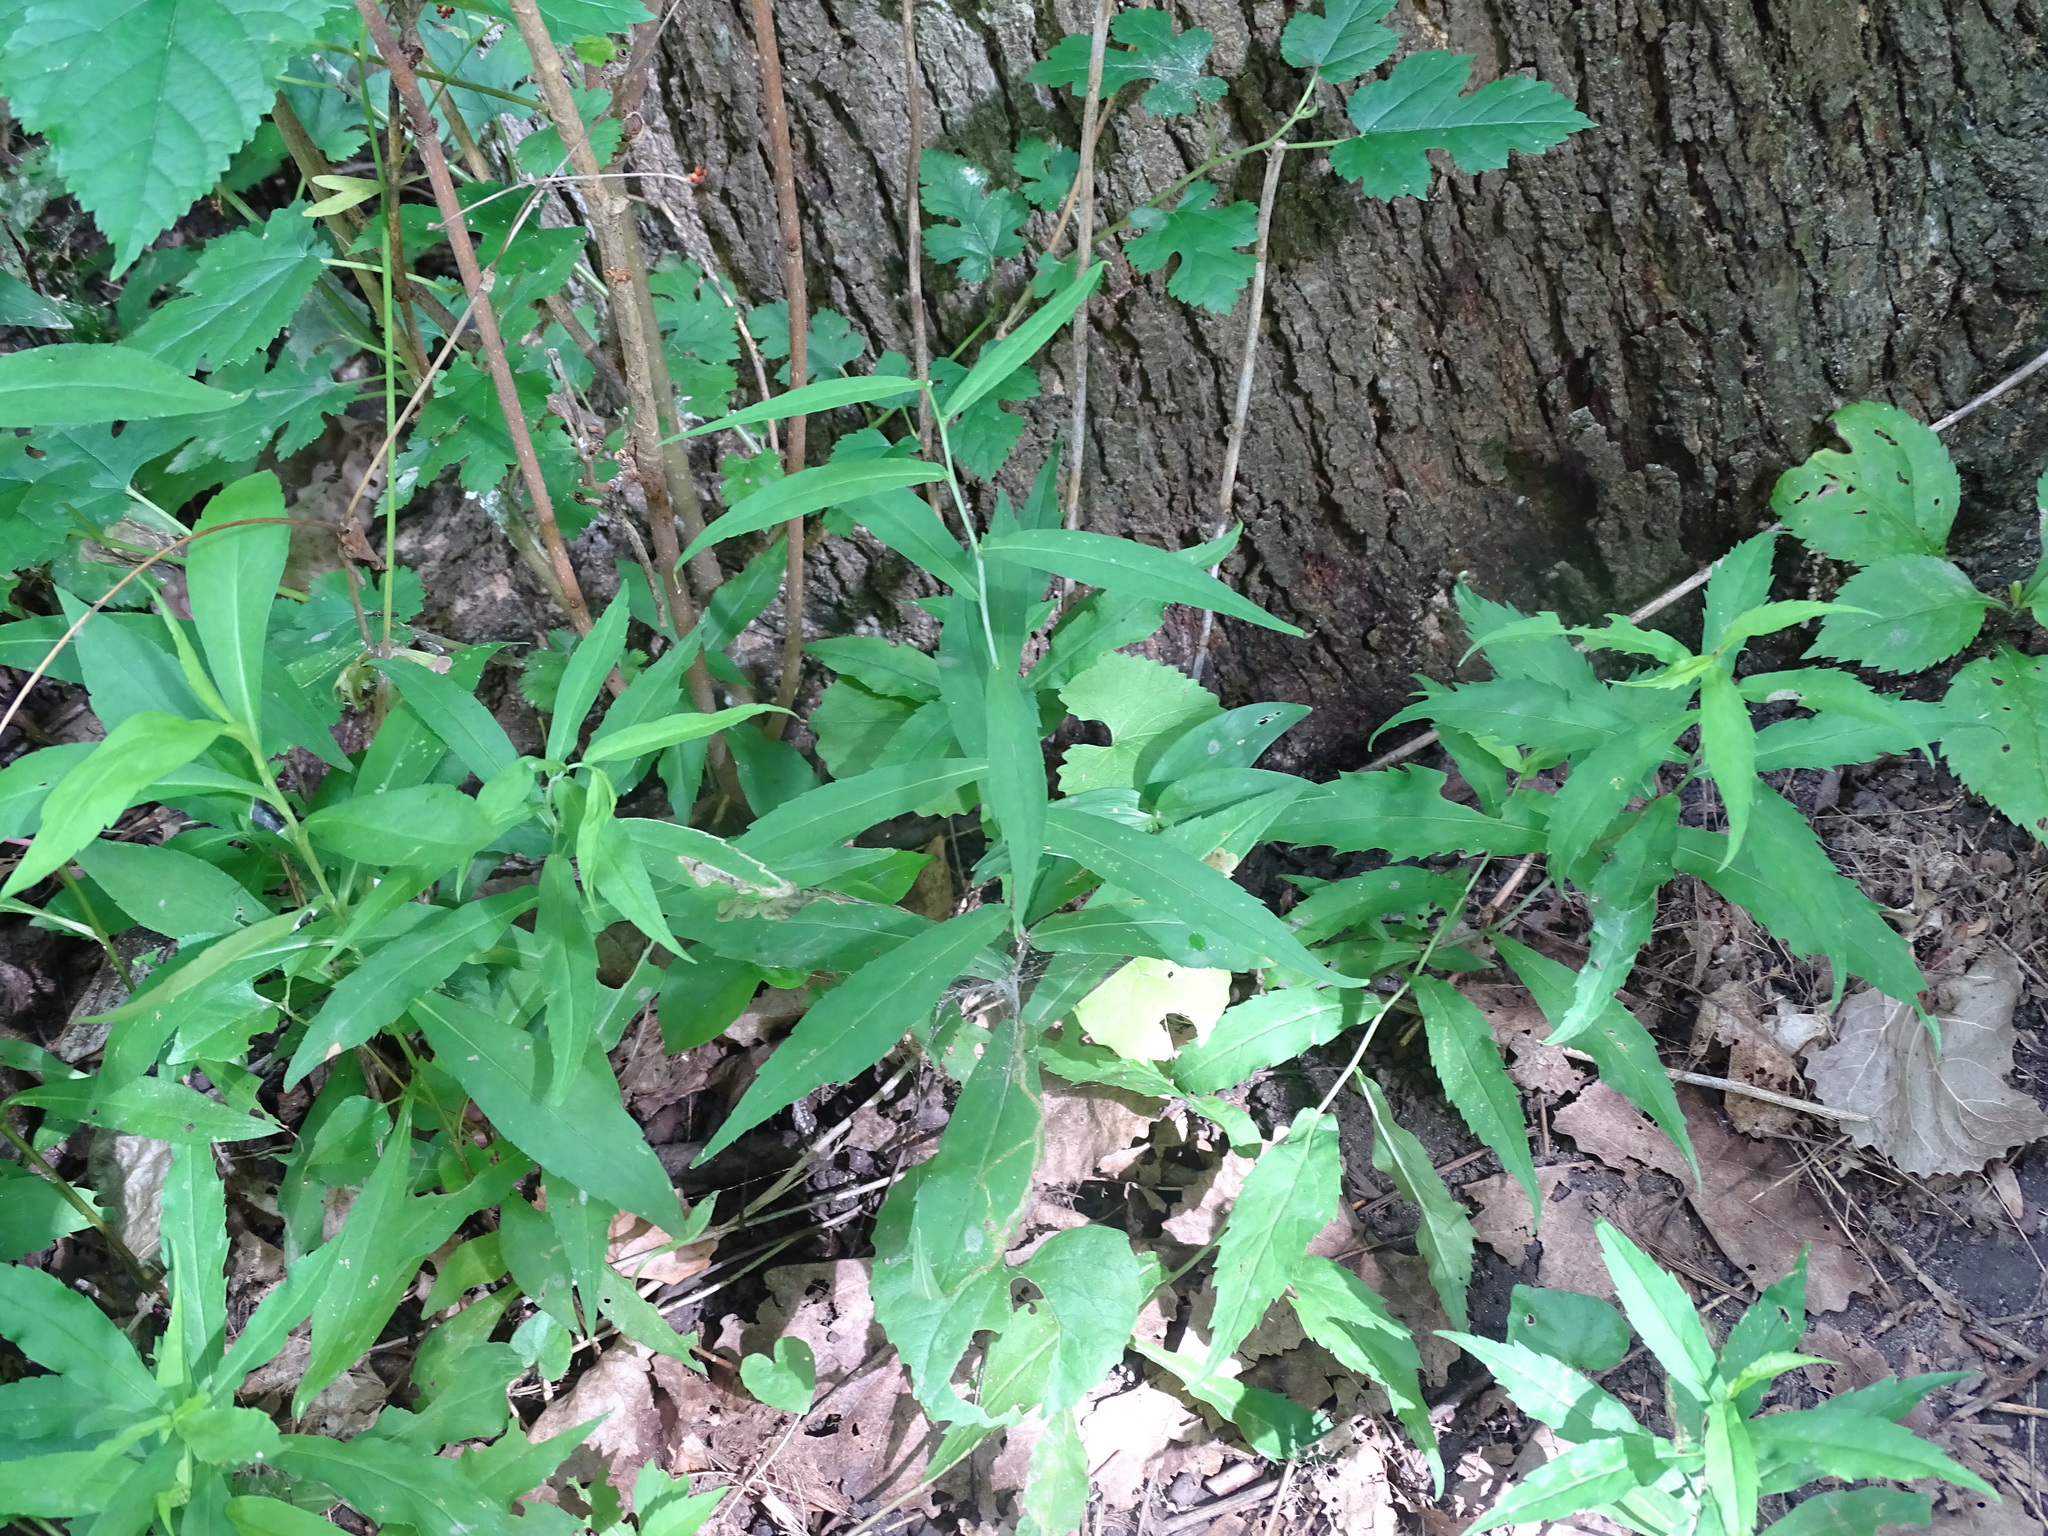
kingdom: Plantae
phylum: Tracheophyta
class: Magnoliopsida
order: Asterales
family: Asteraceae
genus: Solidago
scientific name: Solidago caesia
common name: Woodland goldenrod
